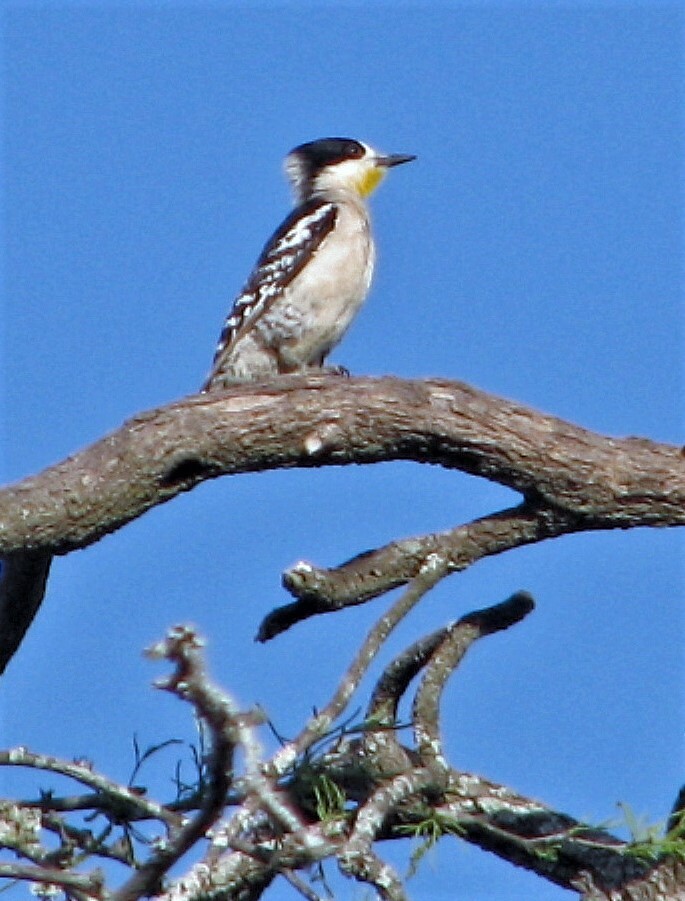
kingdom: Animalia
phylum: Chordata
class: Aves
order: Piciformes
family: Picidae
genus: Melanerpes
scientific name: Melanerpes cactorum
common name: White-fronted woodpecker
